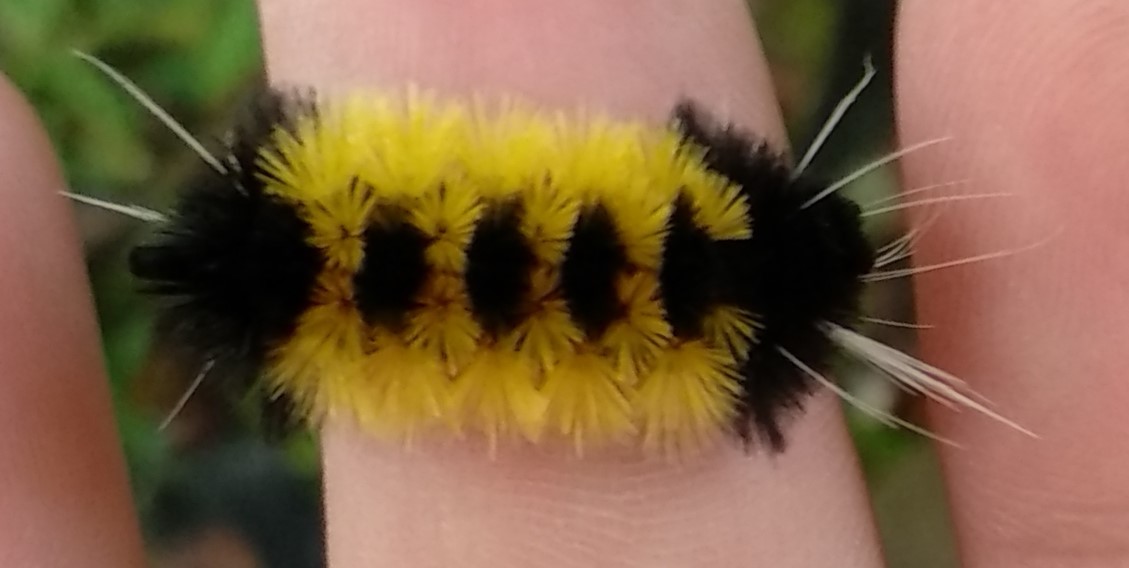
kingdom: Animalia
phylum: Arthropoda
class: Insecta
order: Lepidoptera
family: Erebidae
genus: Lophocampa
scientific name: Lophocampa maculata
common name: Spotted tussock moth
